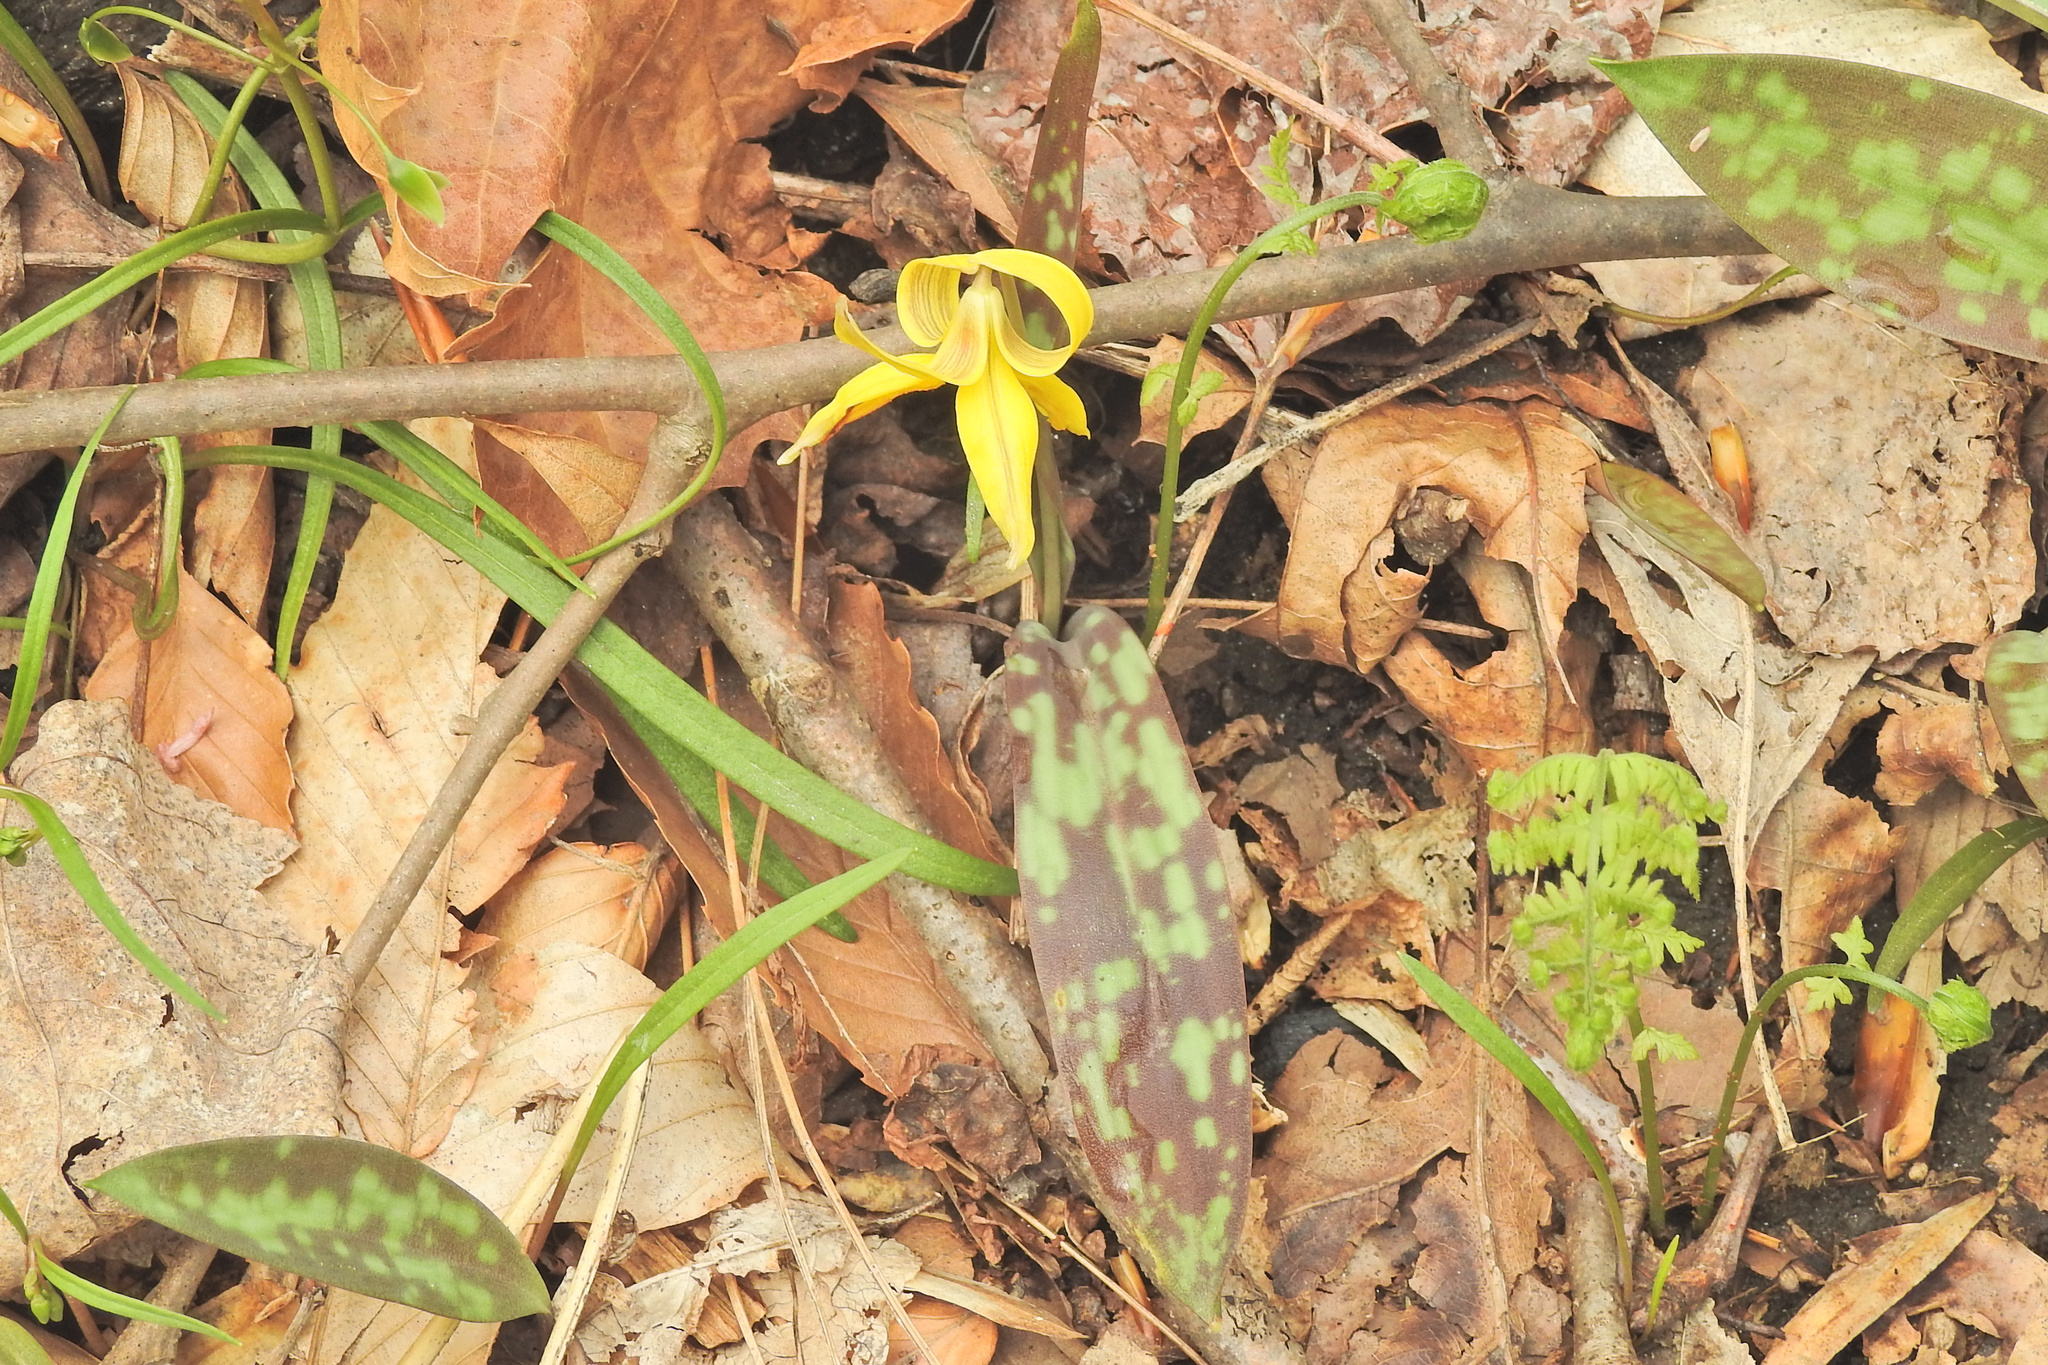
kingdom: Plantae
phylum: Tracheophyta
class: Liliopsida
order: Liliales
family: Liliaceae
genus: Erythronium
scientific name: Erythronium americanum
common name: Yellow adder's-tongue
